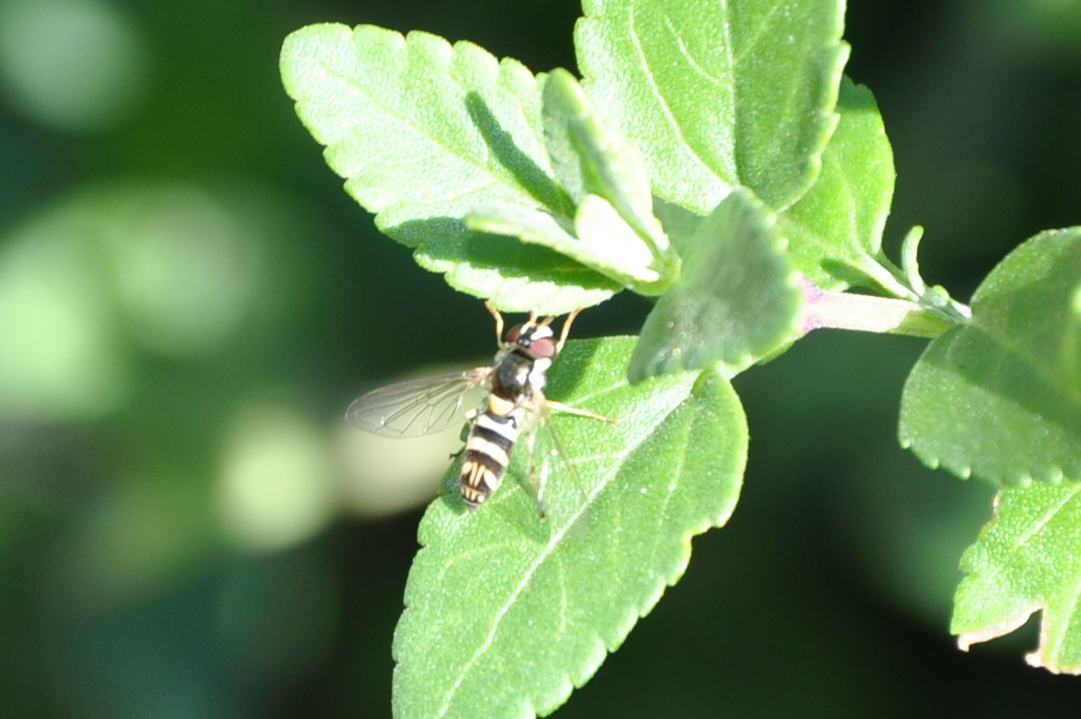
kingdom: Animalia
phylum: Arthropoda
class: Insecta
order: Diptera
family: Syrphidae
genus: Allograpta
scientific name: Allograpta exotica
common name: Syrphid fly
